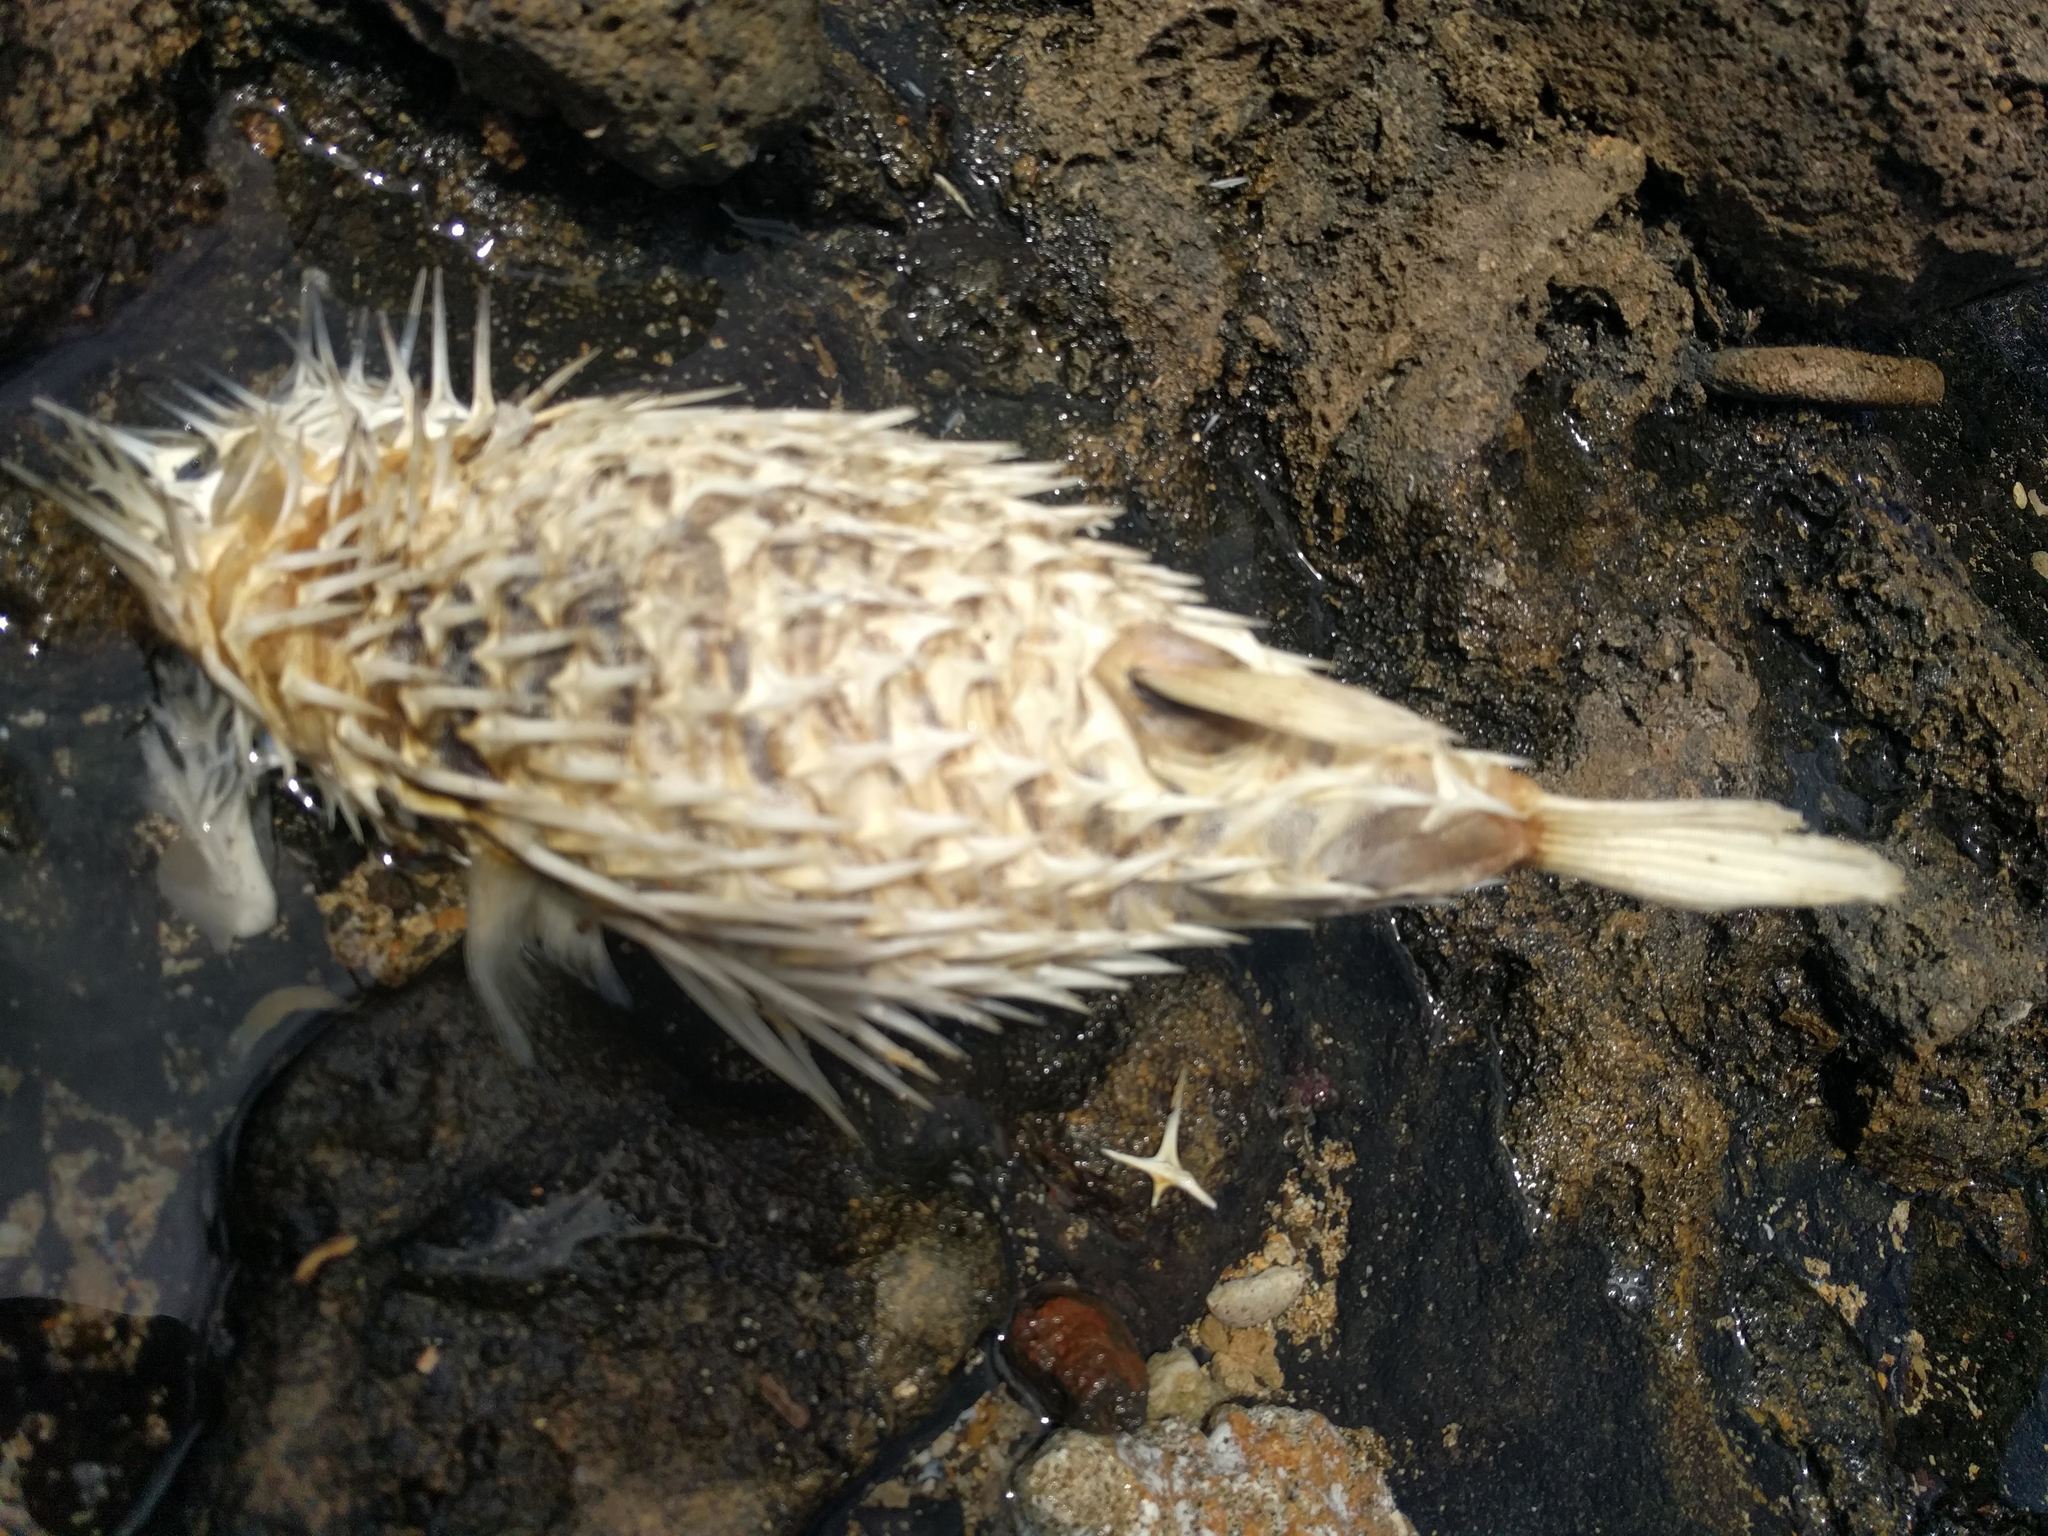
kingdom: Animalia
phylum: Chordata
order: Tetraodontiformes
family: Diodontidae
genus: Diodon
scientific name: Diodon holocanthus
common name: Balloonfish
